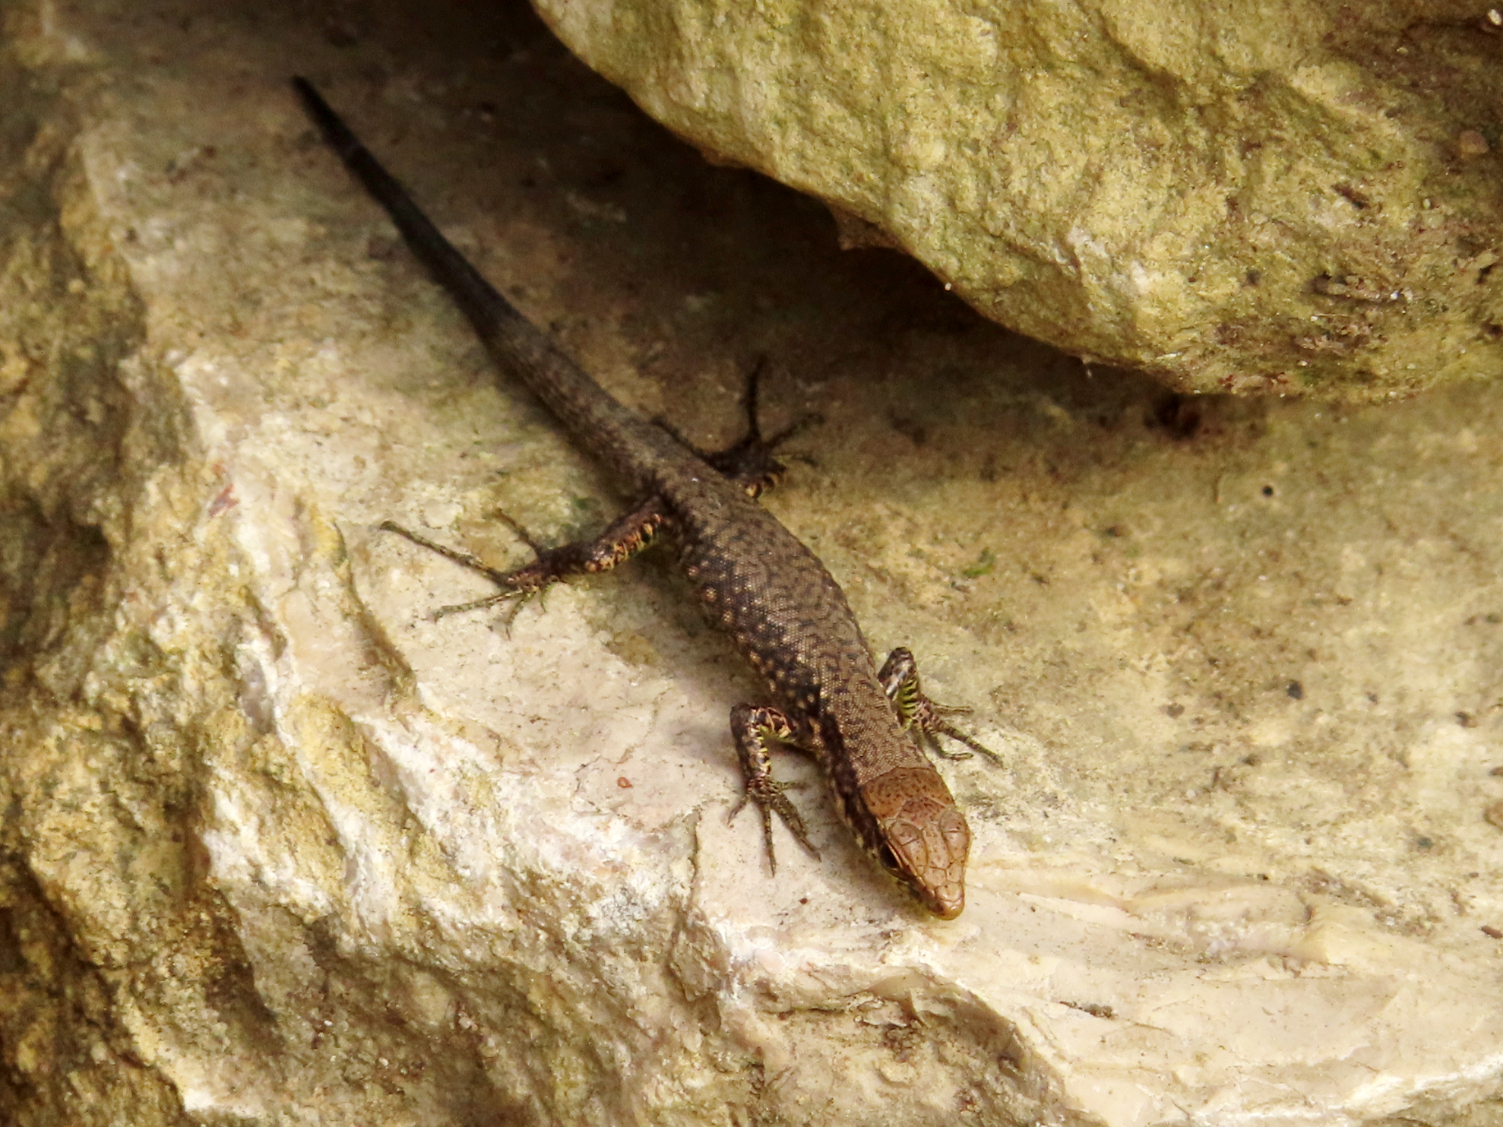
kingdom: Animalia
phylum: Chordata
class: Squamata
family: Lacertidae
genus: Darevskia
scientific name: Darevskia rudis
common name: Spiny-tailed lizard
